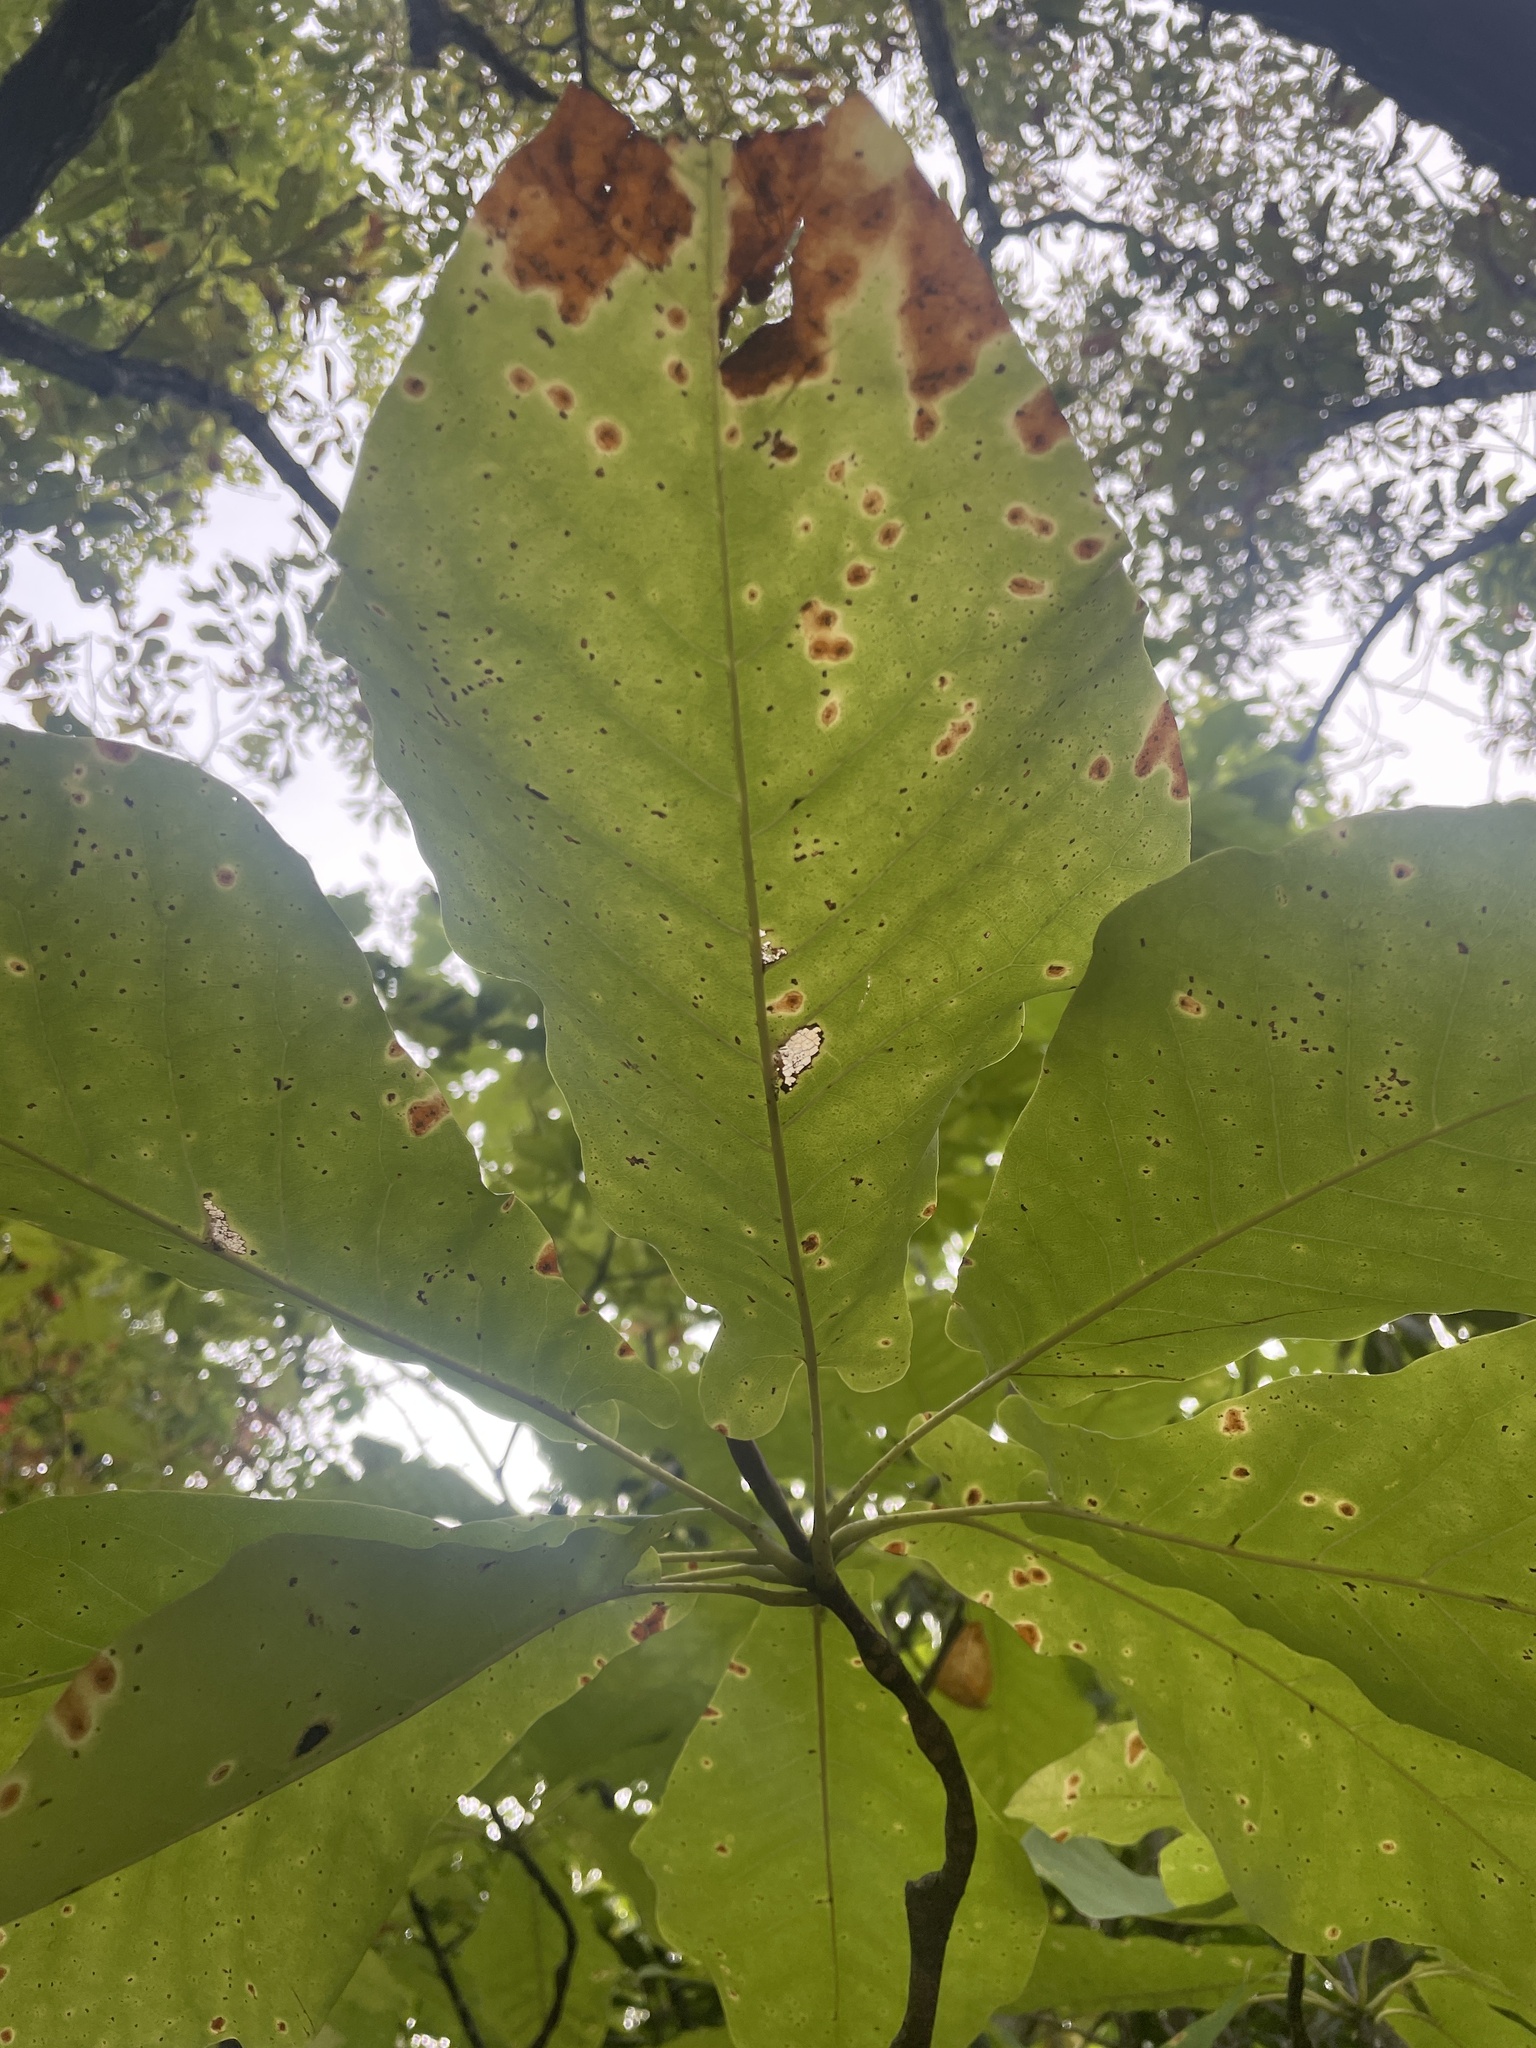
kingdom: Plantae
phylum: Tracheophyta
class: Magnoliopsida
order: Magnoliales
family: Magnoliaceae
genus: Magnolia
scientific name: Magnolia fraseri
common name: Fraser's magnolia
